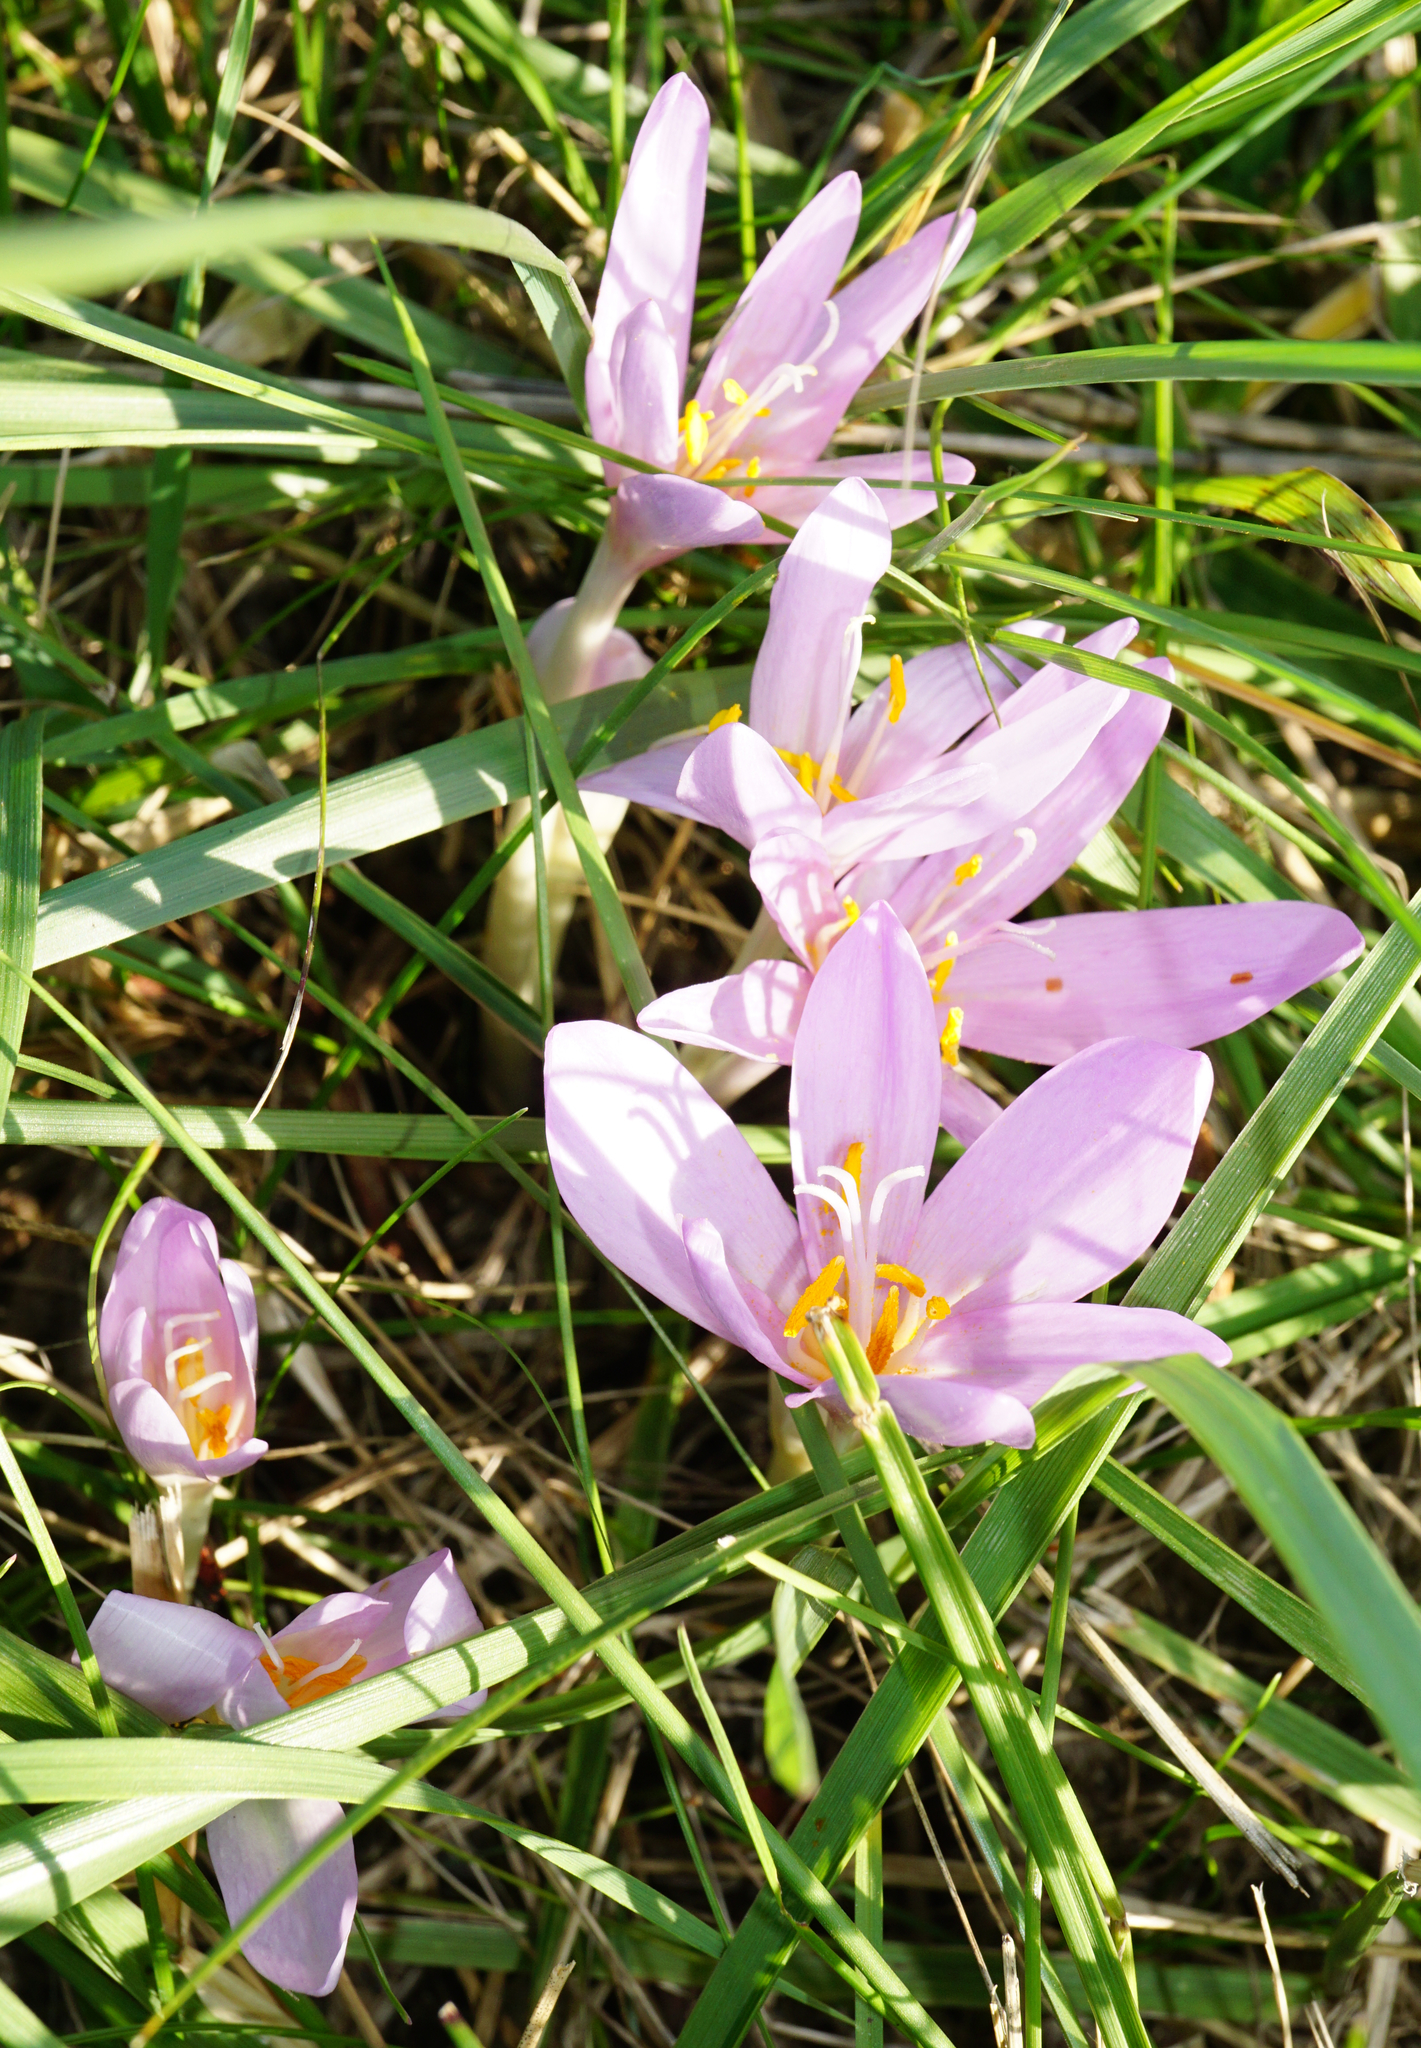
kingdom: Plantae
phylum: Tracheophyta
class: Liliopsida
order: Liliales
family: Colchicaceae
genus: Colchicum
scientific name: Colchicum autumnale
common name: Autumn crocus
